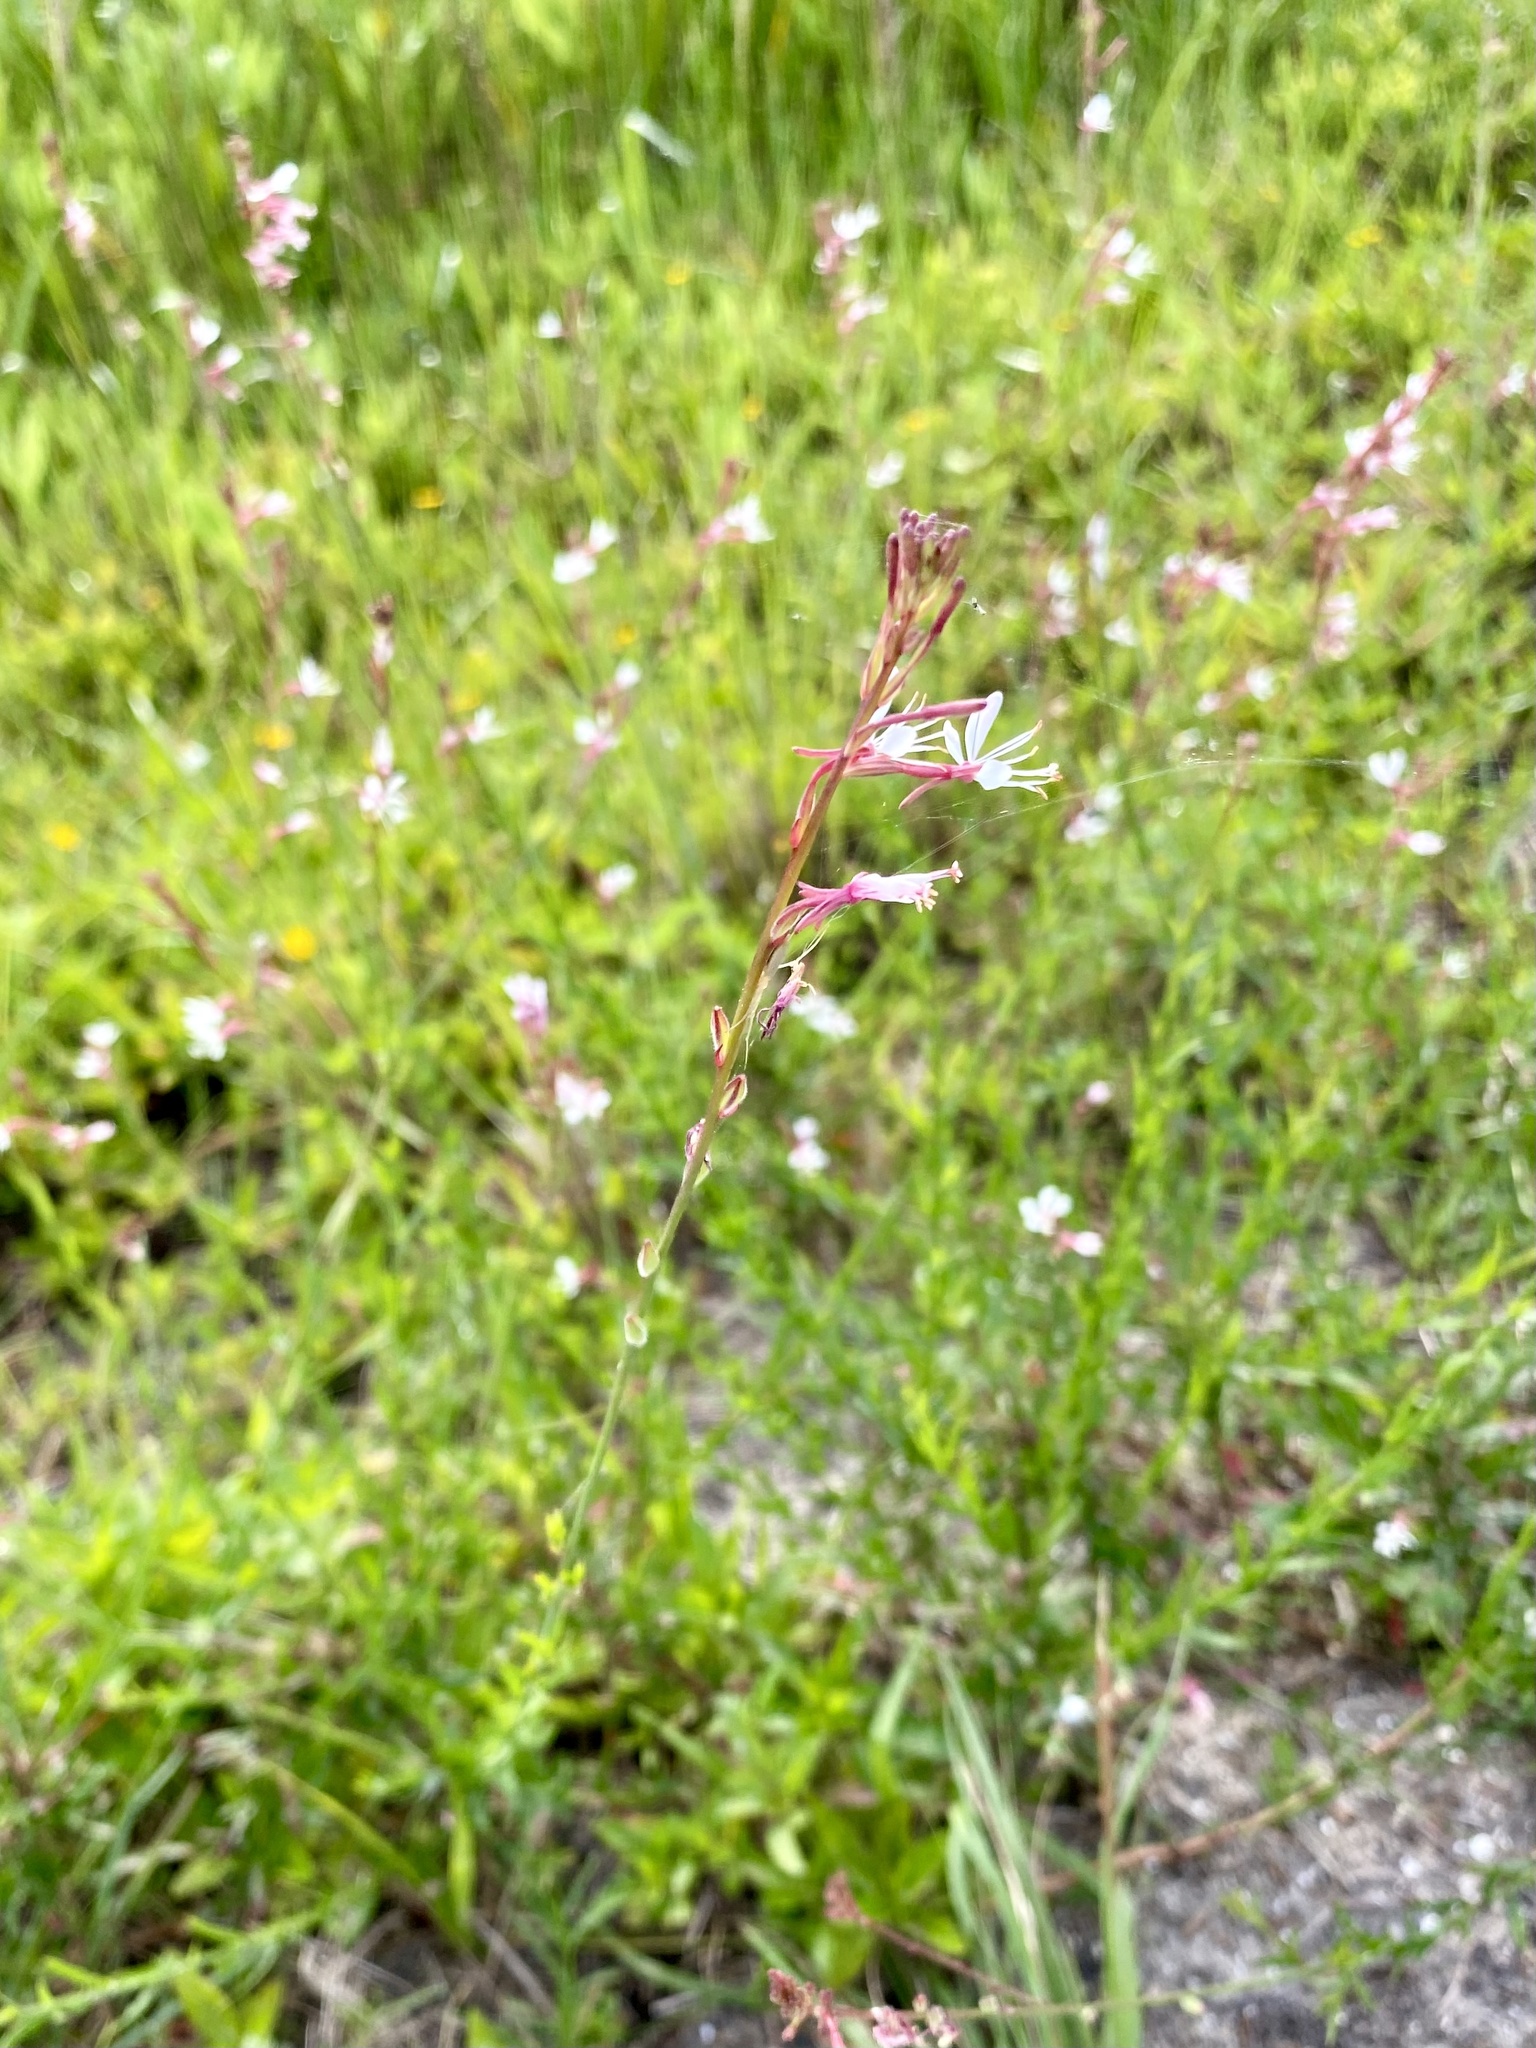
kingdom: Plantae
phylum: Tracheophyta
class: Magnoliopsida
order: Myrtales
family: Onagraceae
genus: Oenothera
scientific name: Oenothera simulans
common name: Southern beeblossom
